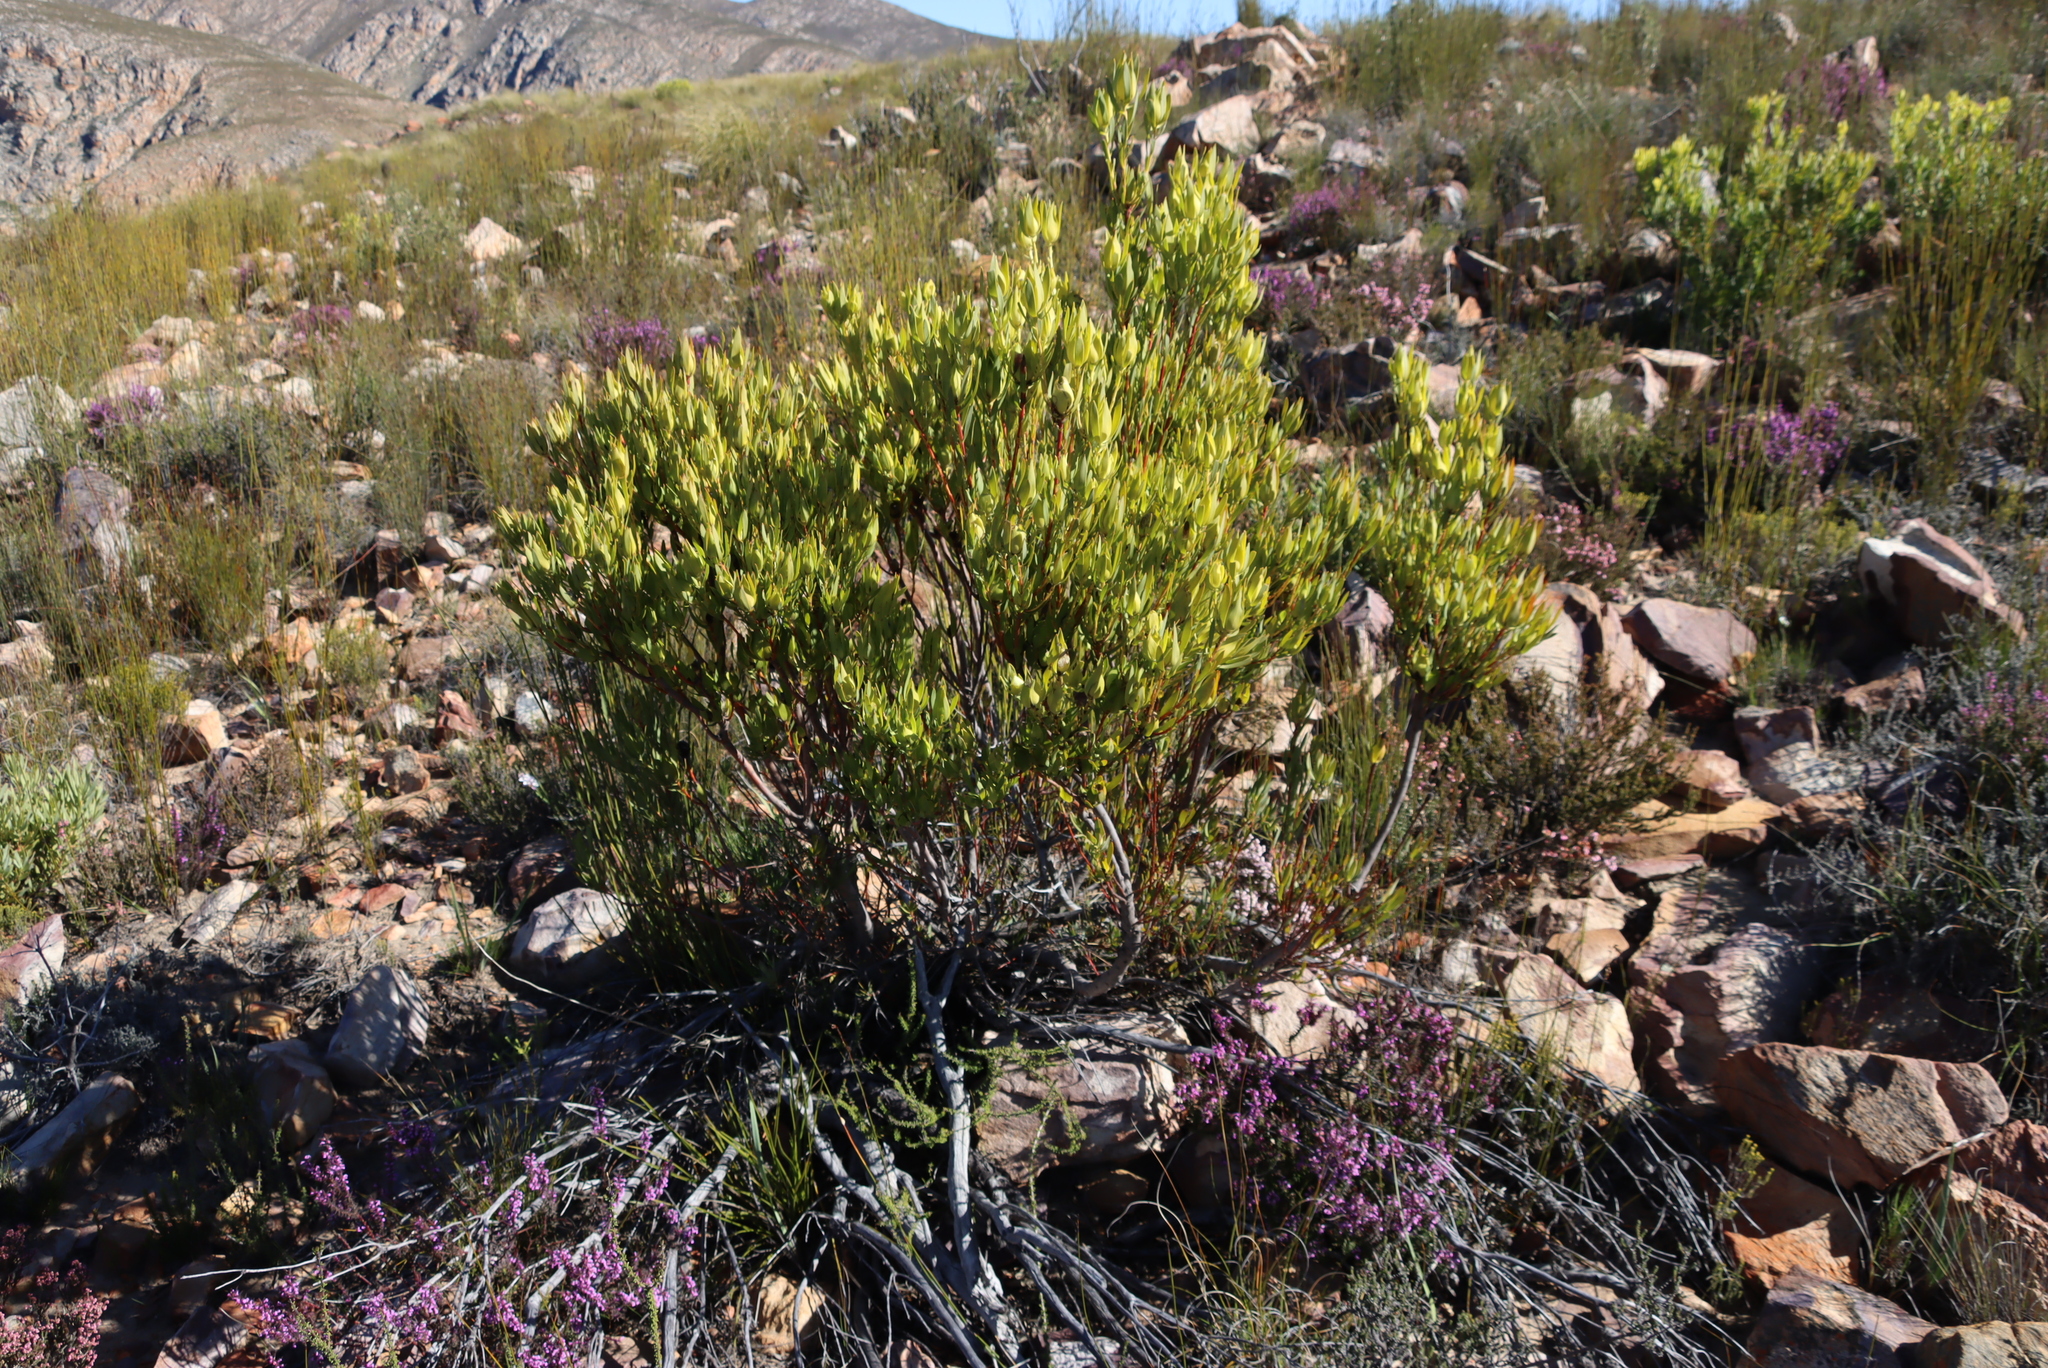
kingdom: Plantae
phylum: Tracheophyta
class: Magnoliopsida
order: Proteales
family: Proteaceae
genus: Leucadendron
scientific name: Leucadendron salignum
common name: Common sunshine conebush
